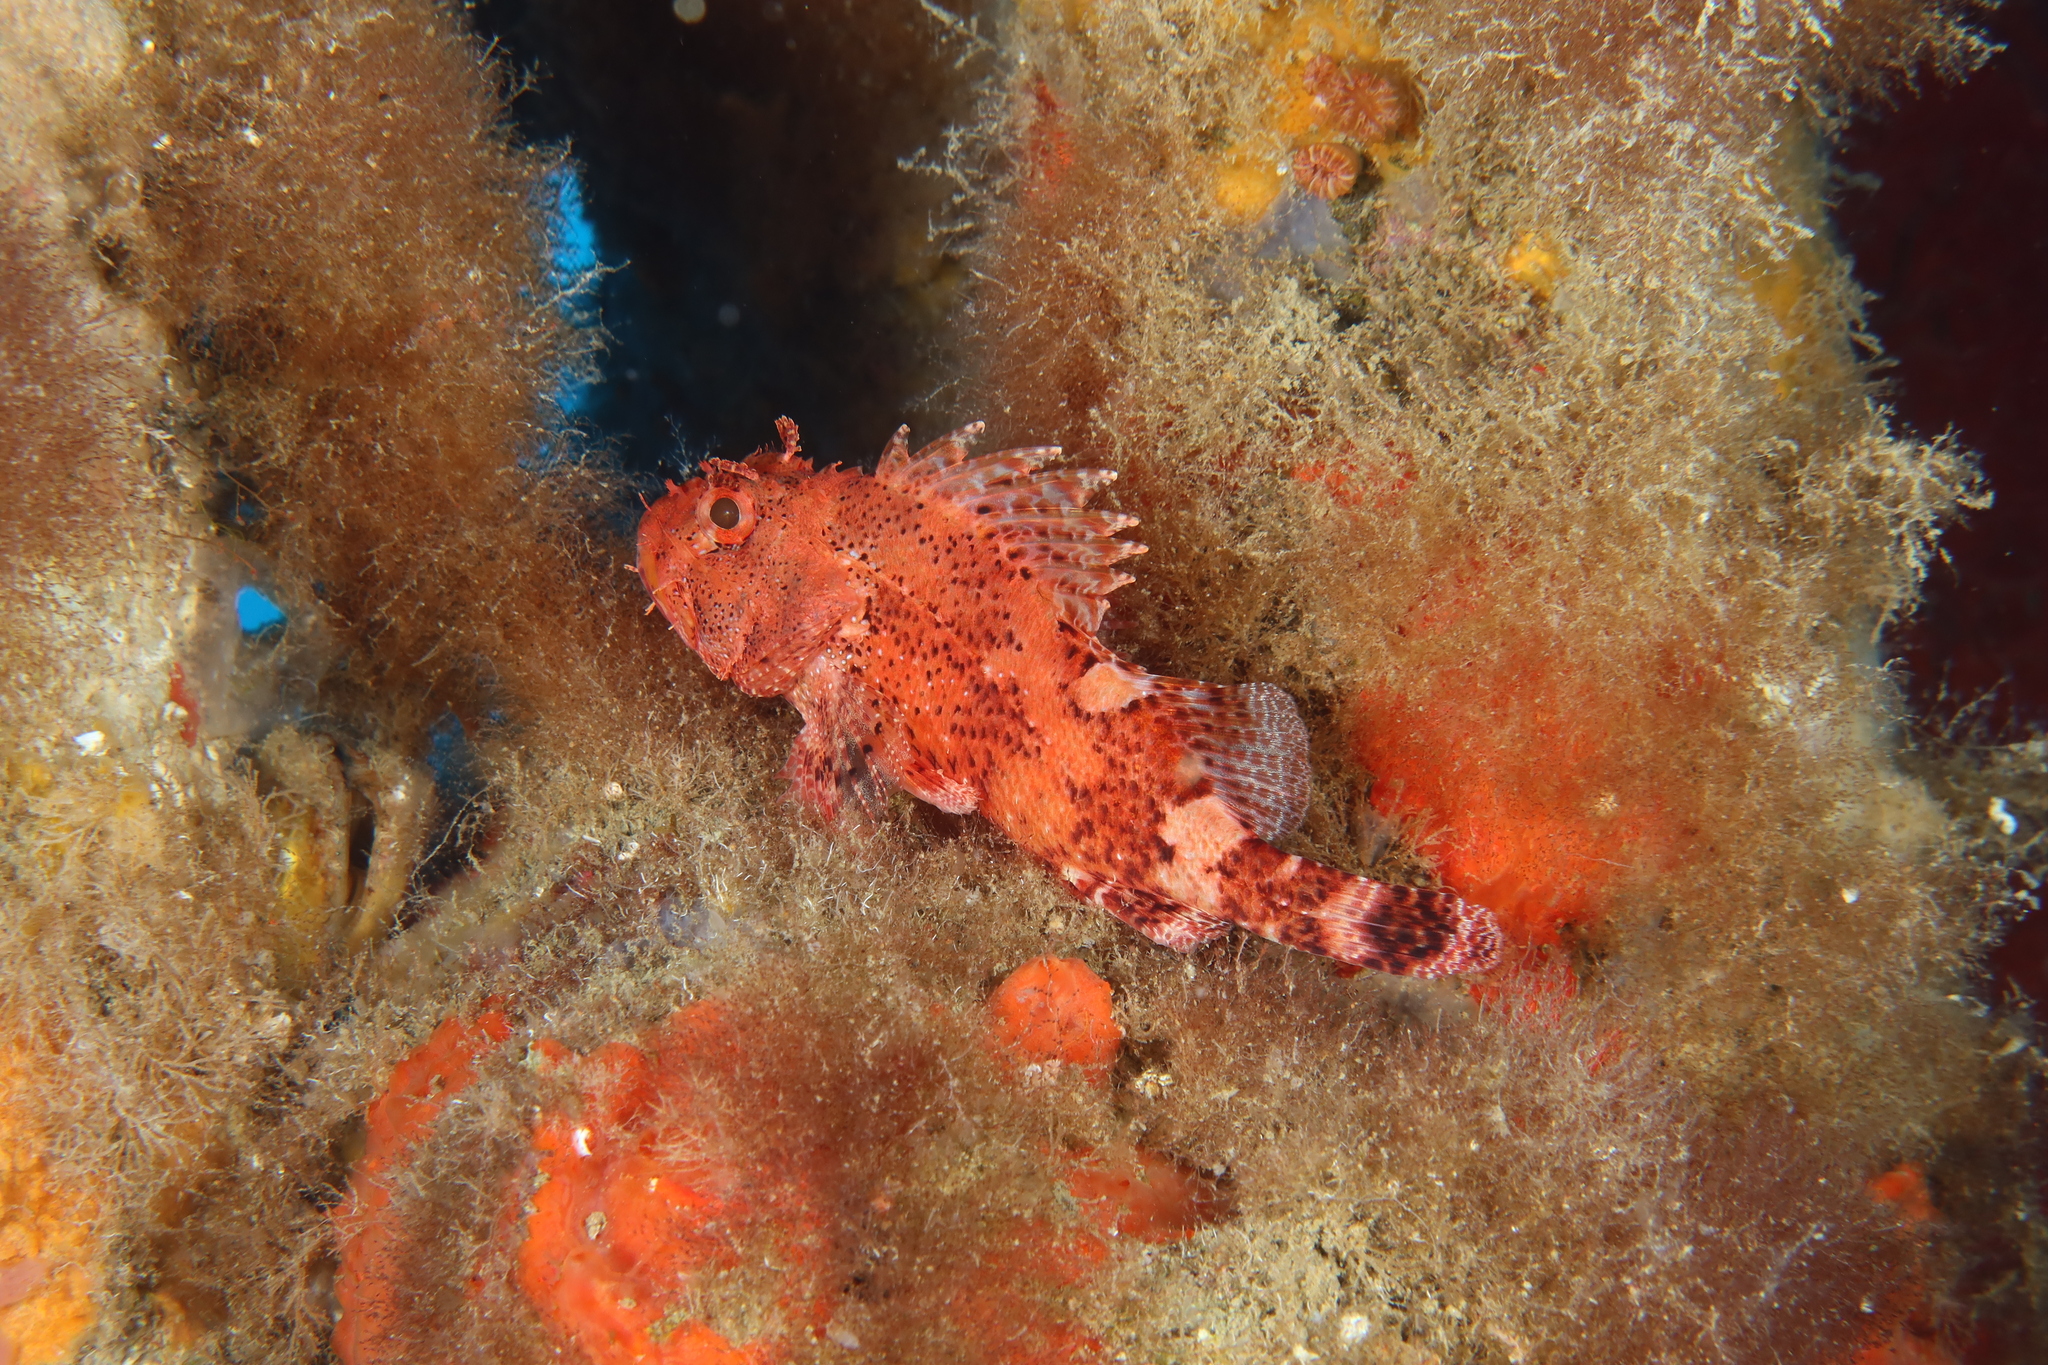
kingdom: Animalia
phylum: Chordata
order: Scorpaeniformes
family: Scorpaenidae
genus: Scorpaena
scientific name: Scorpaena maderensis
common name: Madeira rockfish
